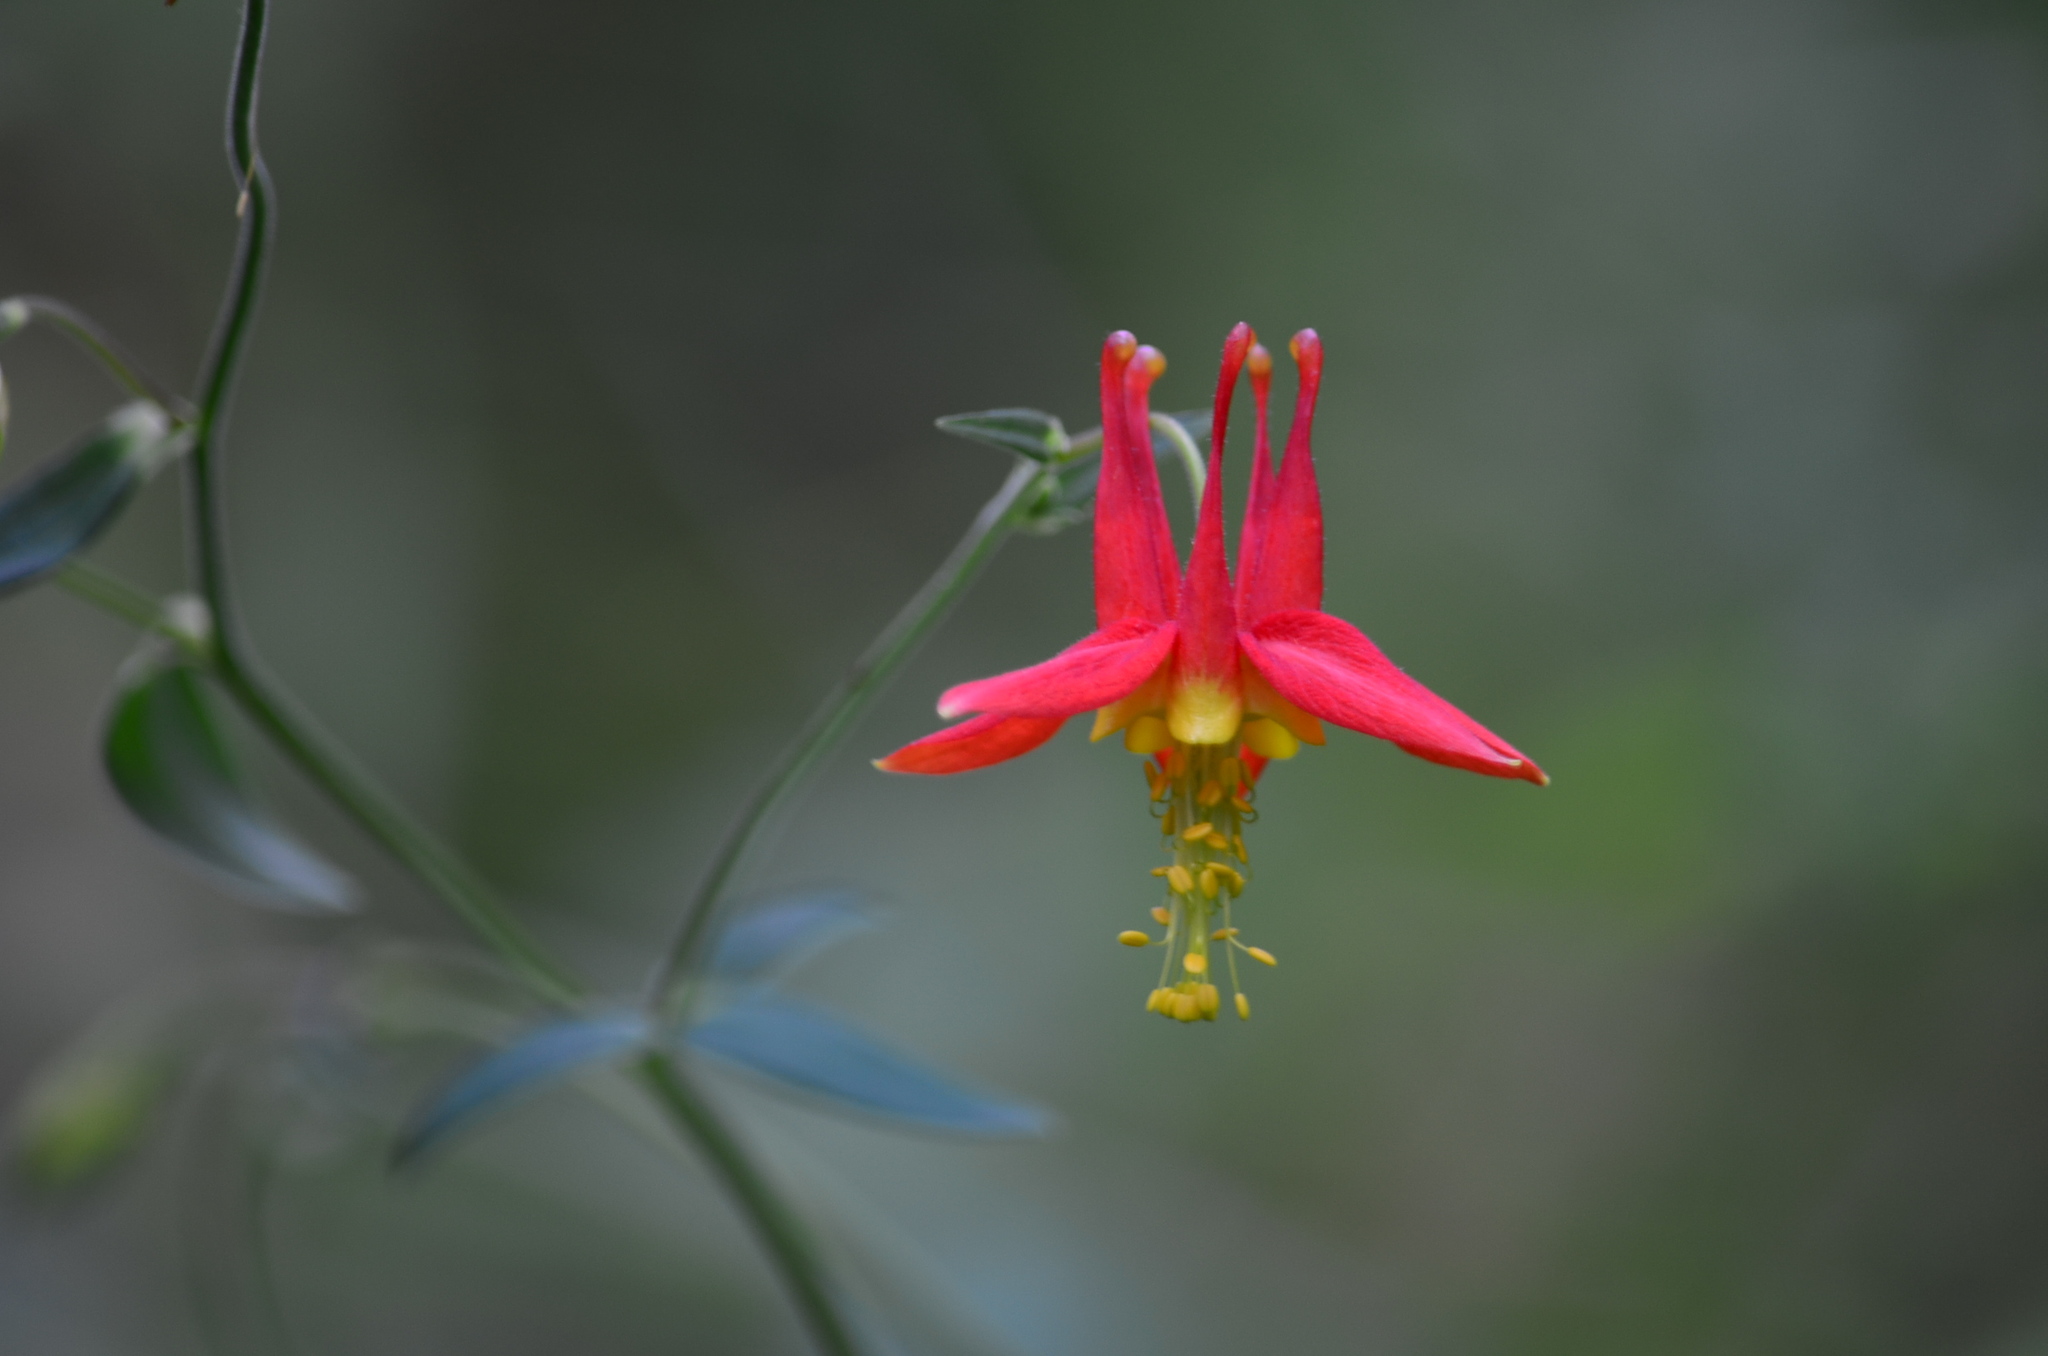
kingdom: Plantae
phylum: Tracheophyta
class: Magnoliopsida
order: Ranunculales
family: Ranunculaceae
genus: Aquilegia
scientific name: Aquilegia formosa
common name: Sitka columbine
